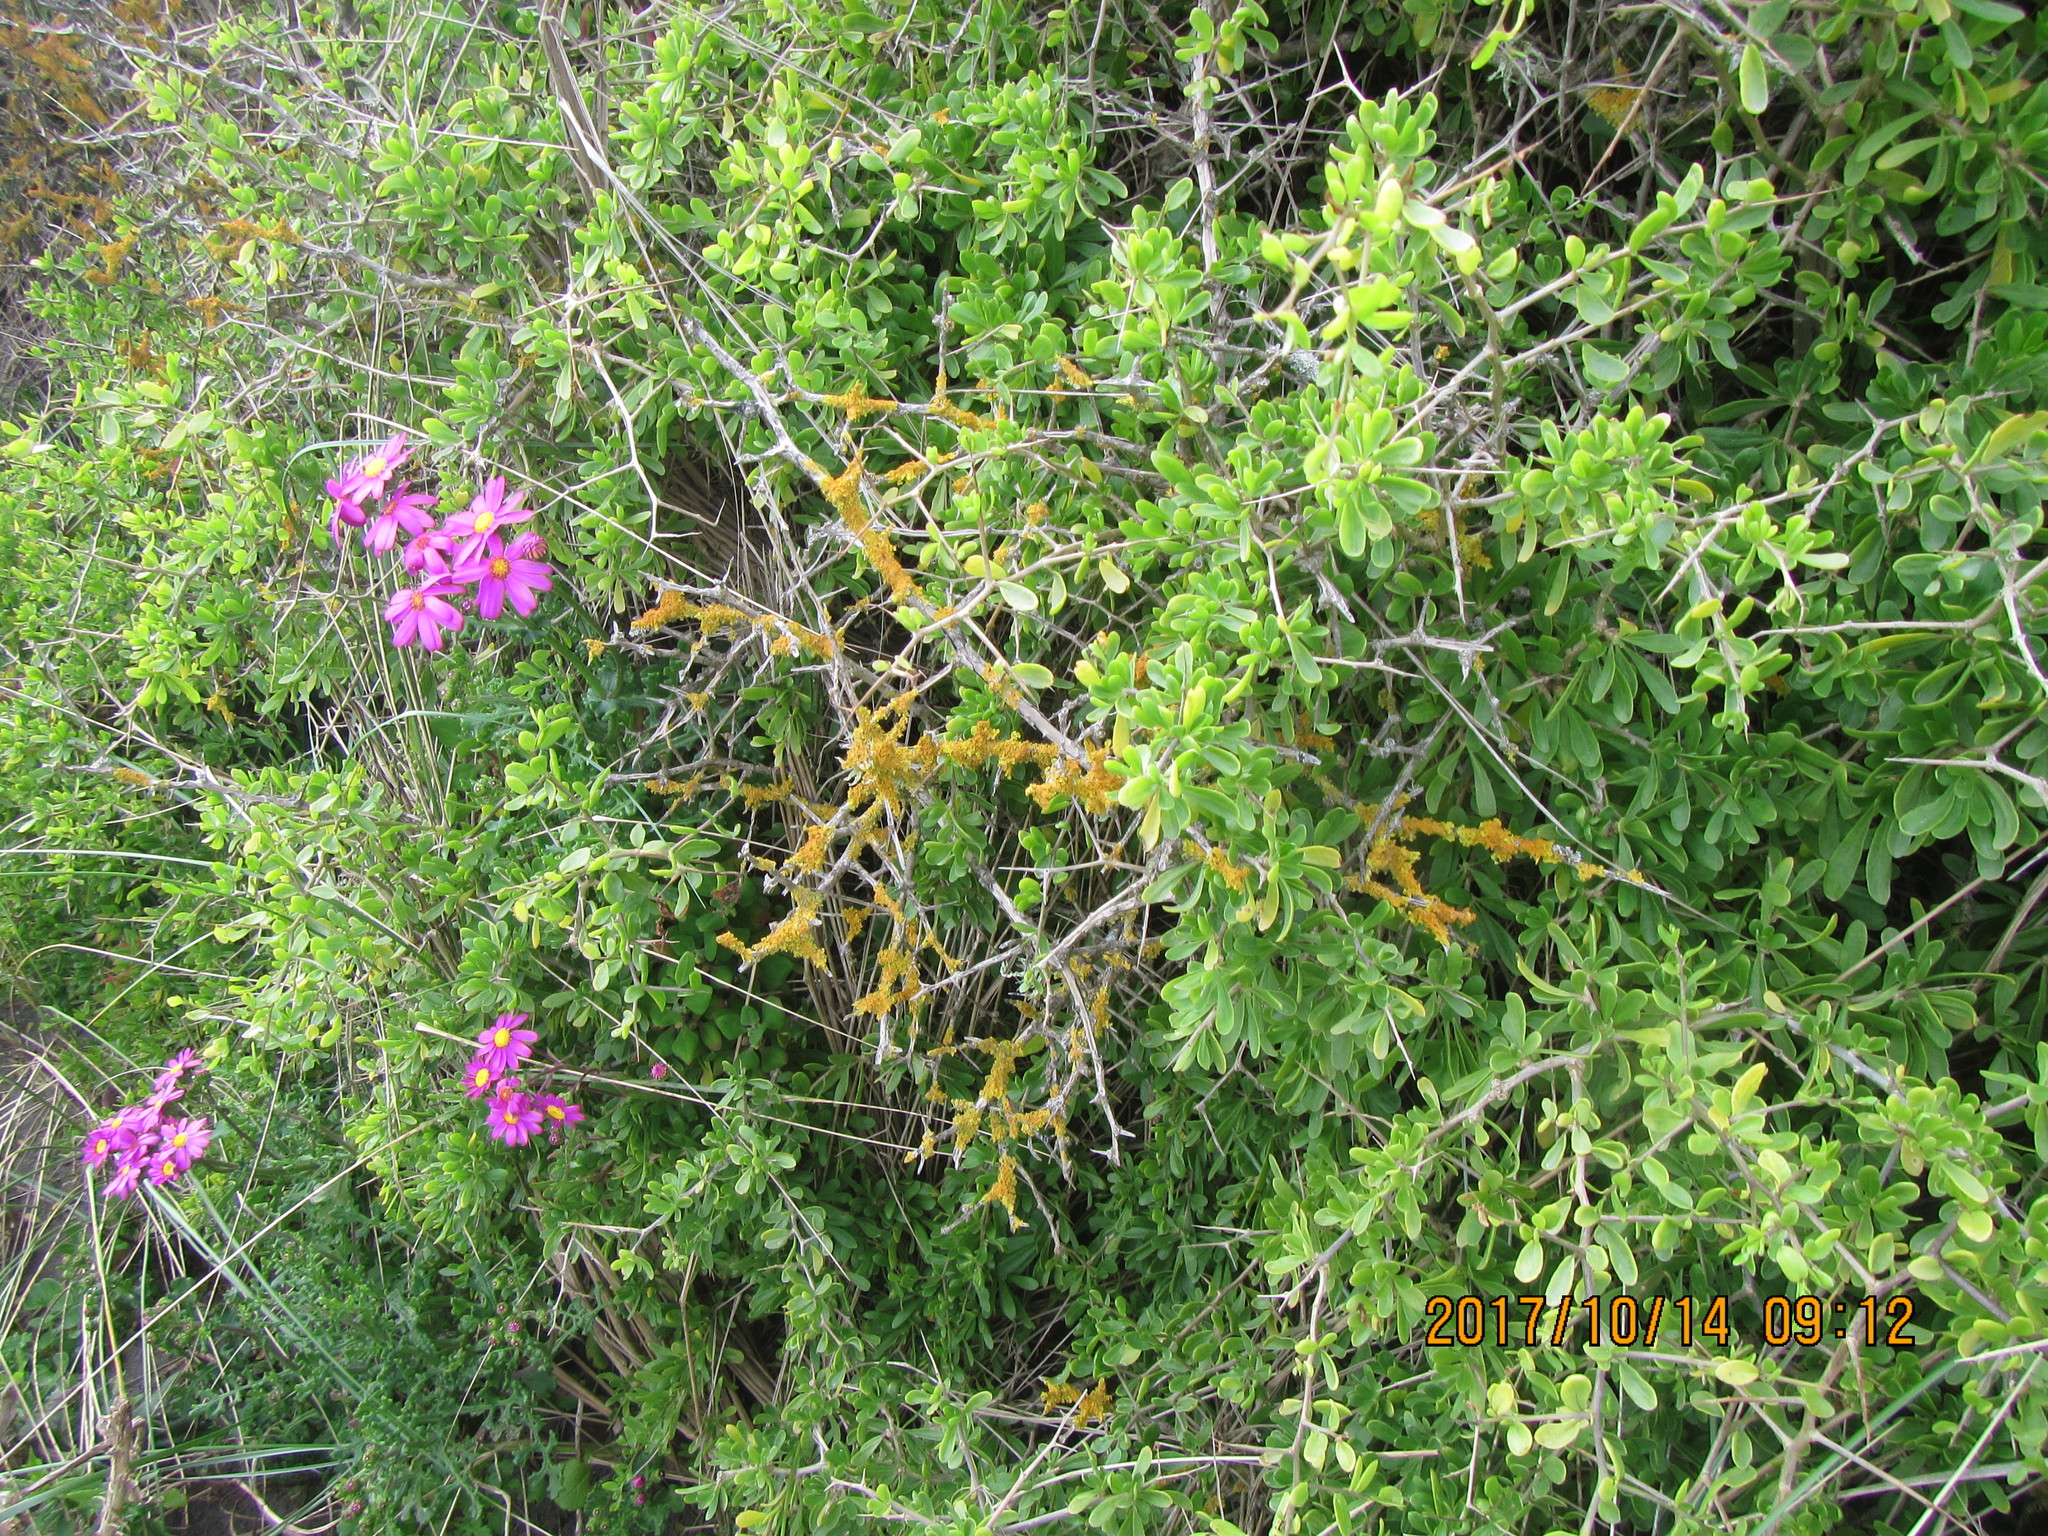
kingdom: Plantae
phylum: Tracheophyta
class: Magnoliopsida
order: Solanales
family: Solanaceae
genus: Lycium
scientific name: Lycium ferocissimum
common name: African boxthorn
